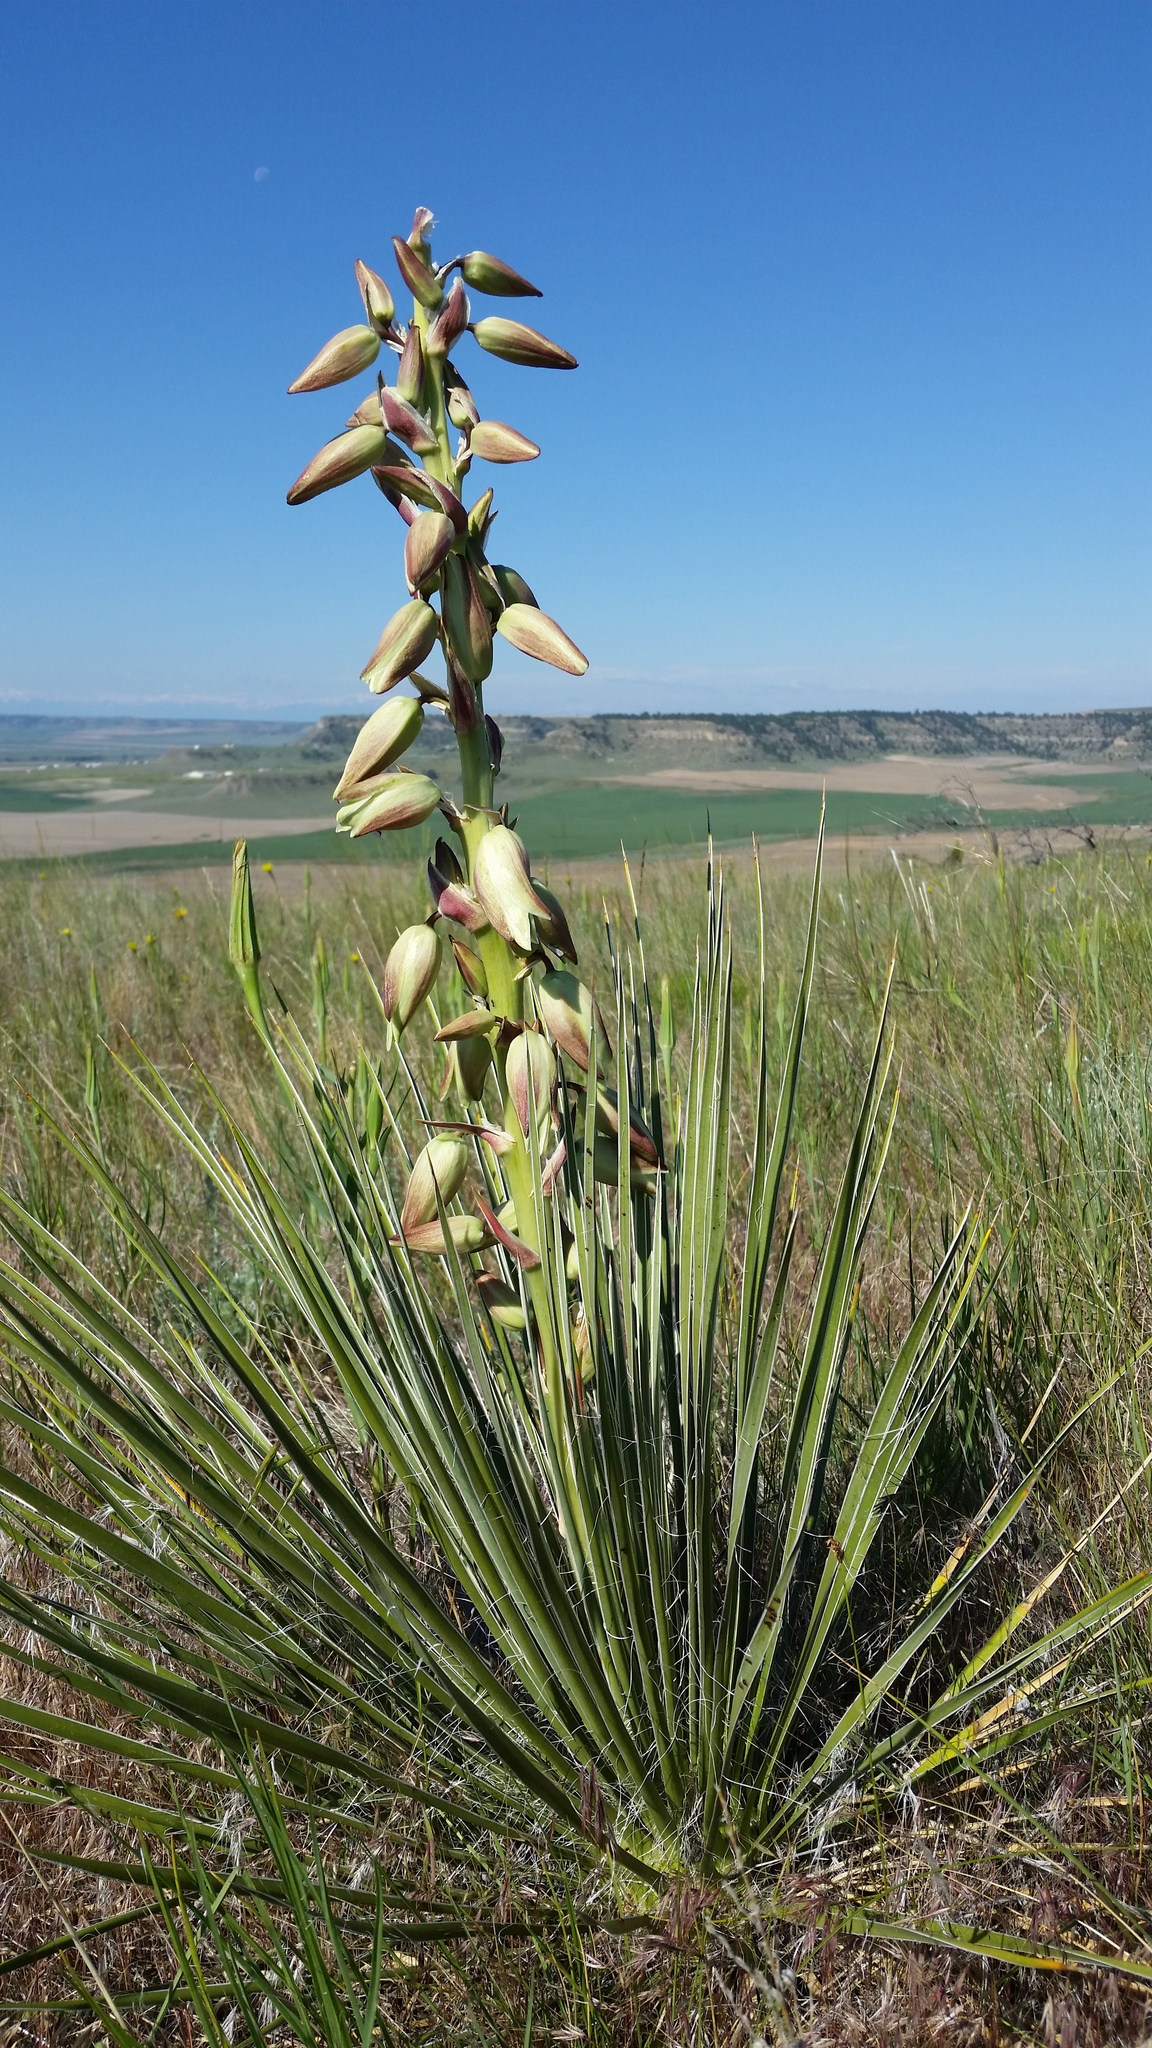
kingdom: Plantae
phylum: Tracheophyta
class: Liliopsida
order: Asparagales
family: Asparagaceae
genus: Yucca
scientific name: Yucca glauca
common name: Great plains yucca
